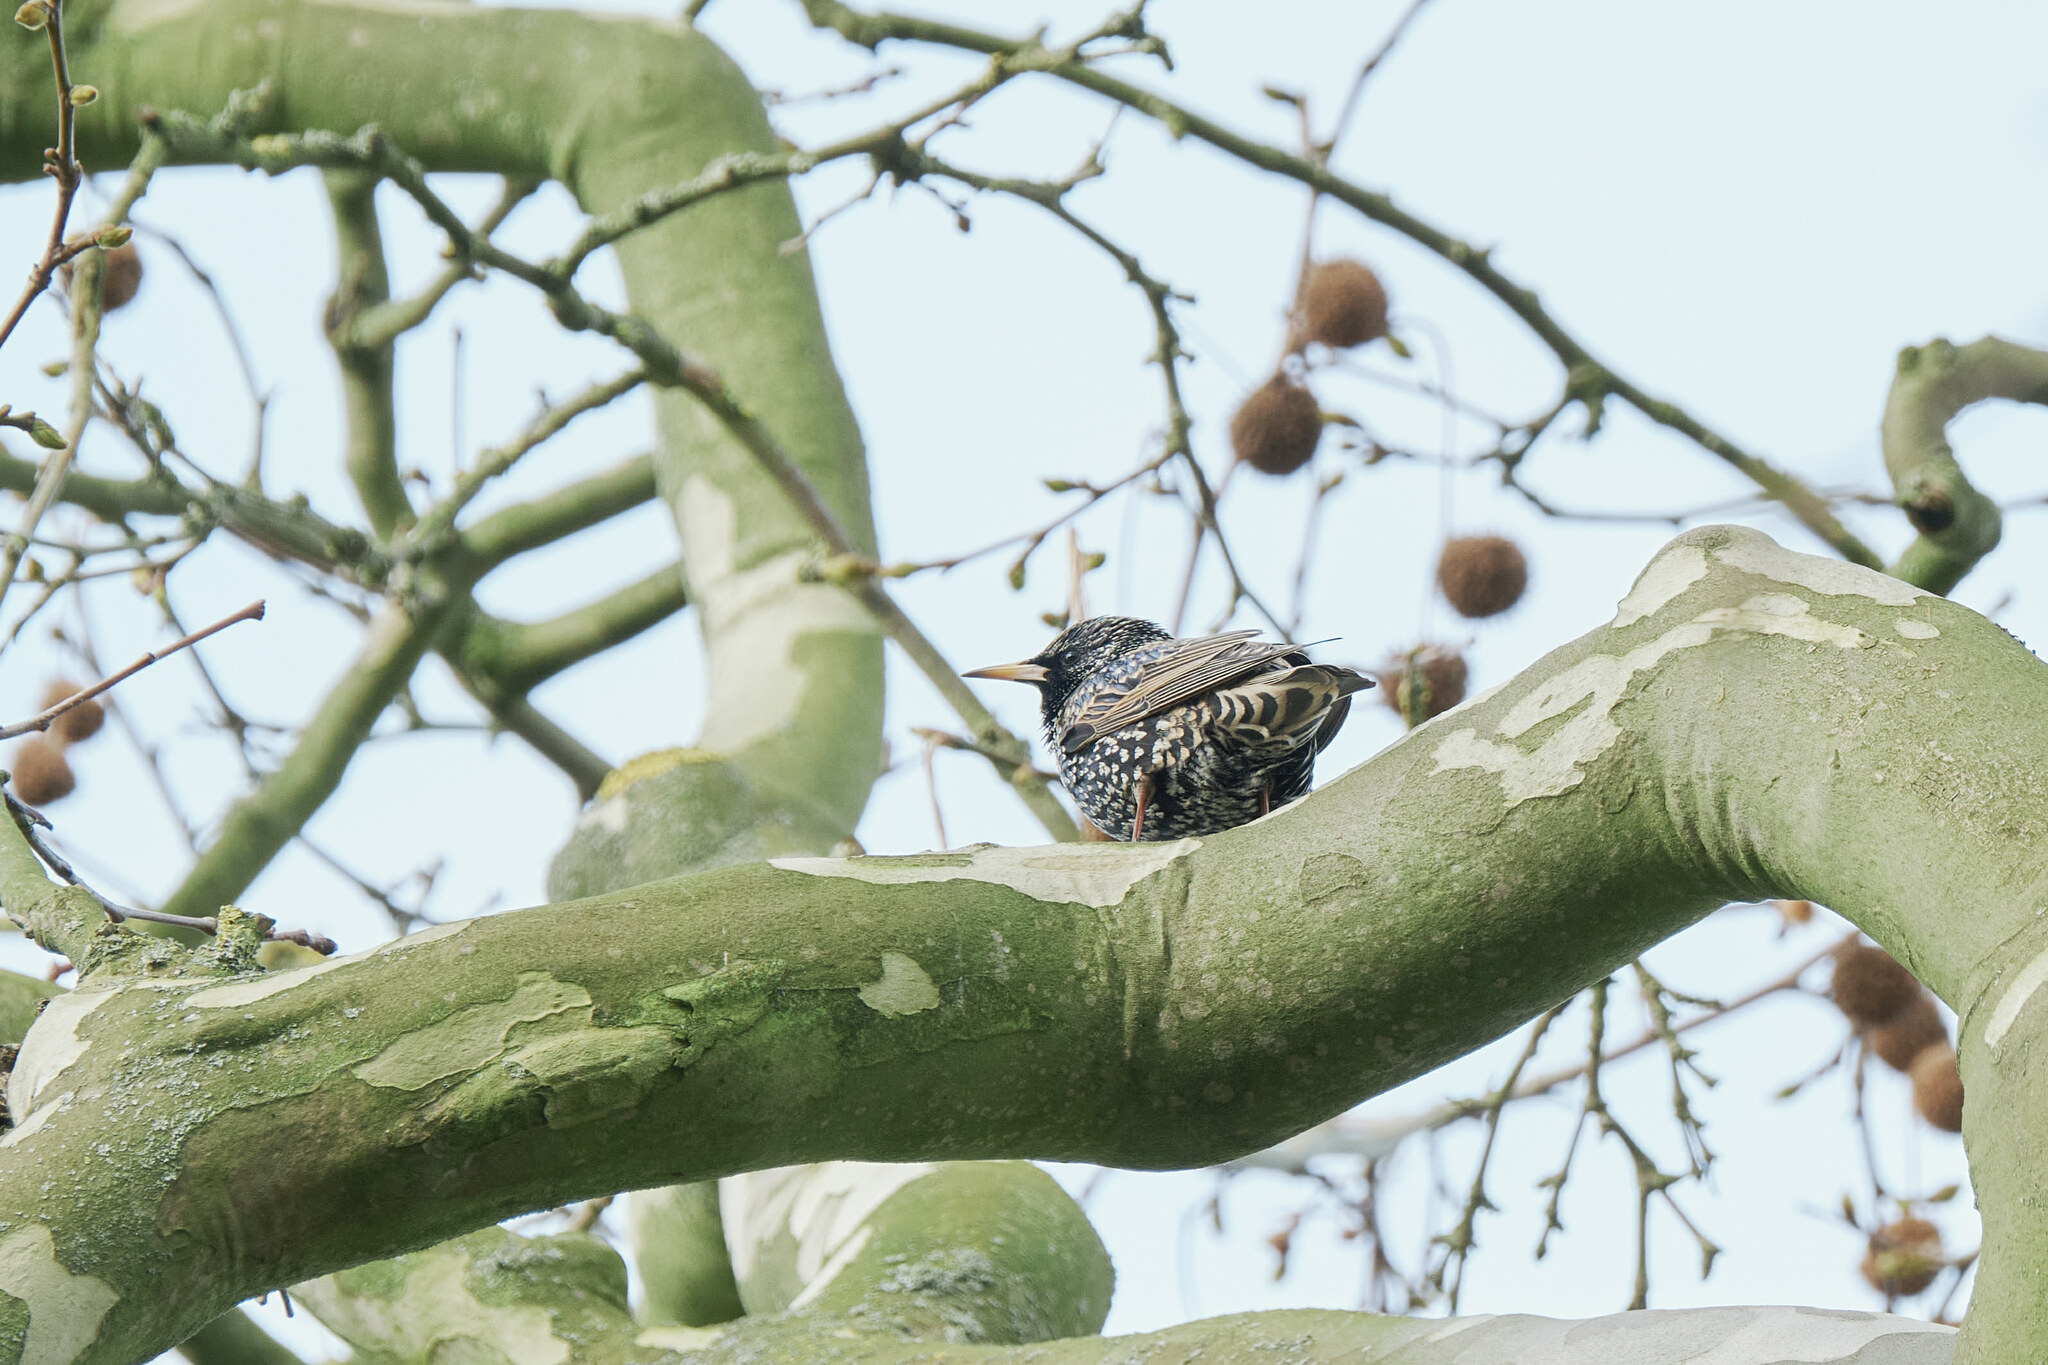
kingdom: Animalia
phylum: Chordata
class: Aves
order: Passeriformes
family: Sturnidae
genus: Sturnus
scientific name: Sturnus vulgaris
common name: Common starling
